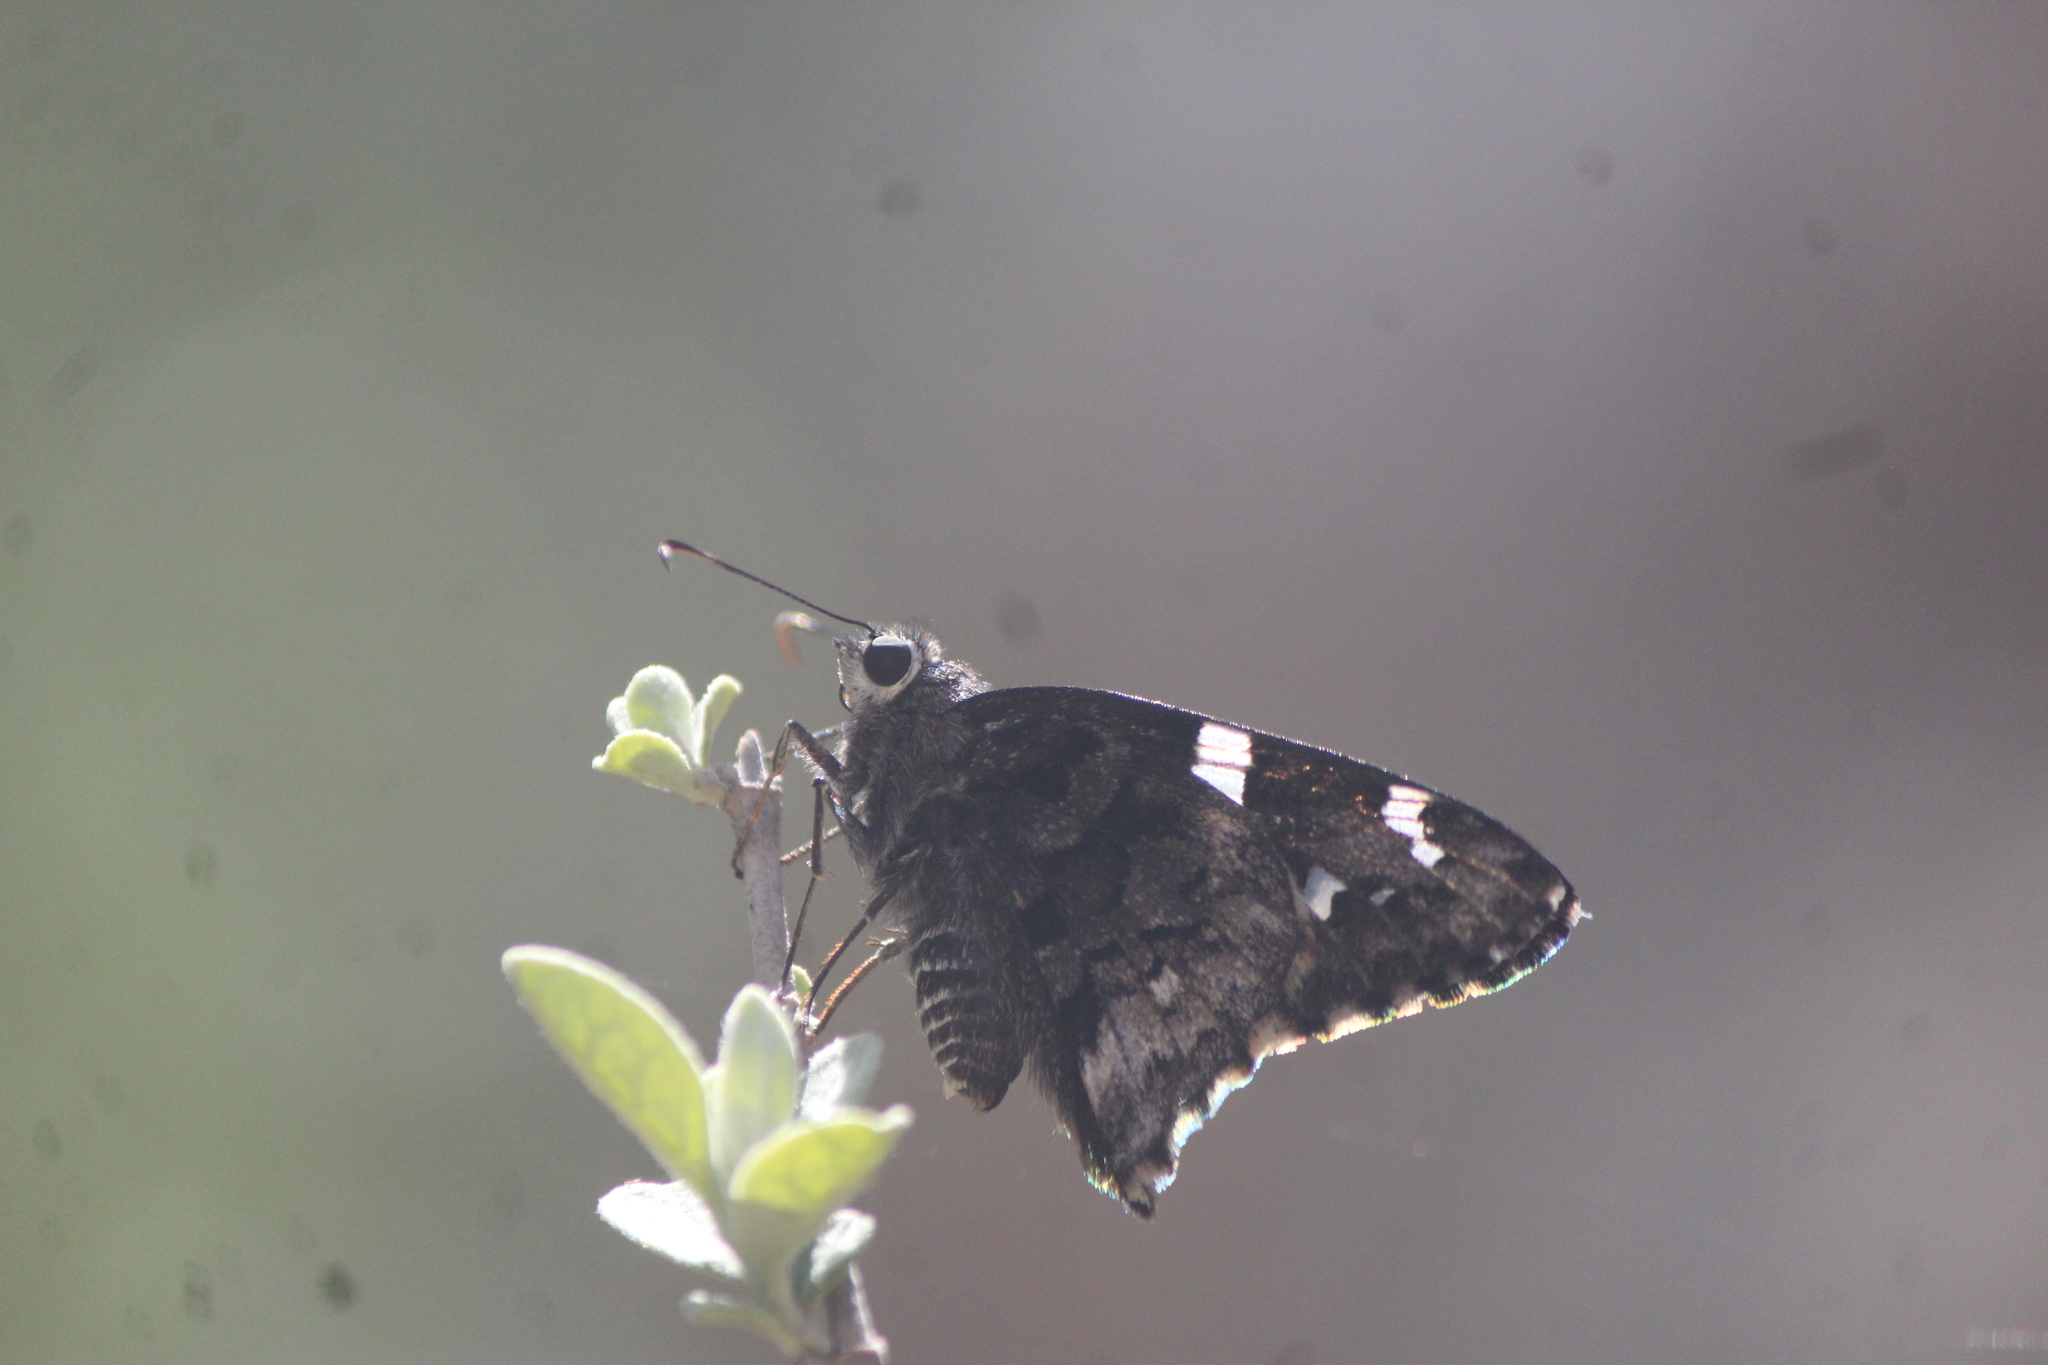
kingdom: Animalia
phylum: Arthropoda
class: Insecta
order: Lepidoptera
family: Hesperiidae
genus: Codatractus
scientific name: Codatractus arizonensis
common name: Arizona skipper
